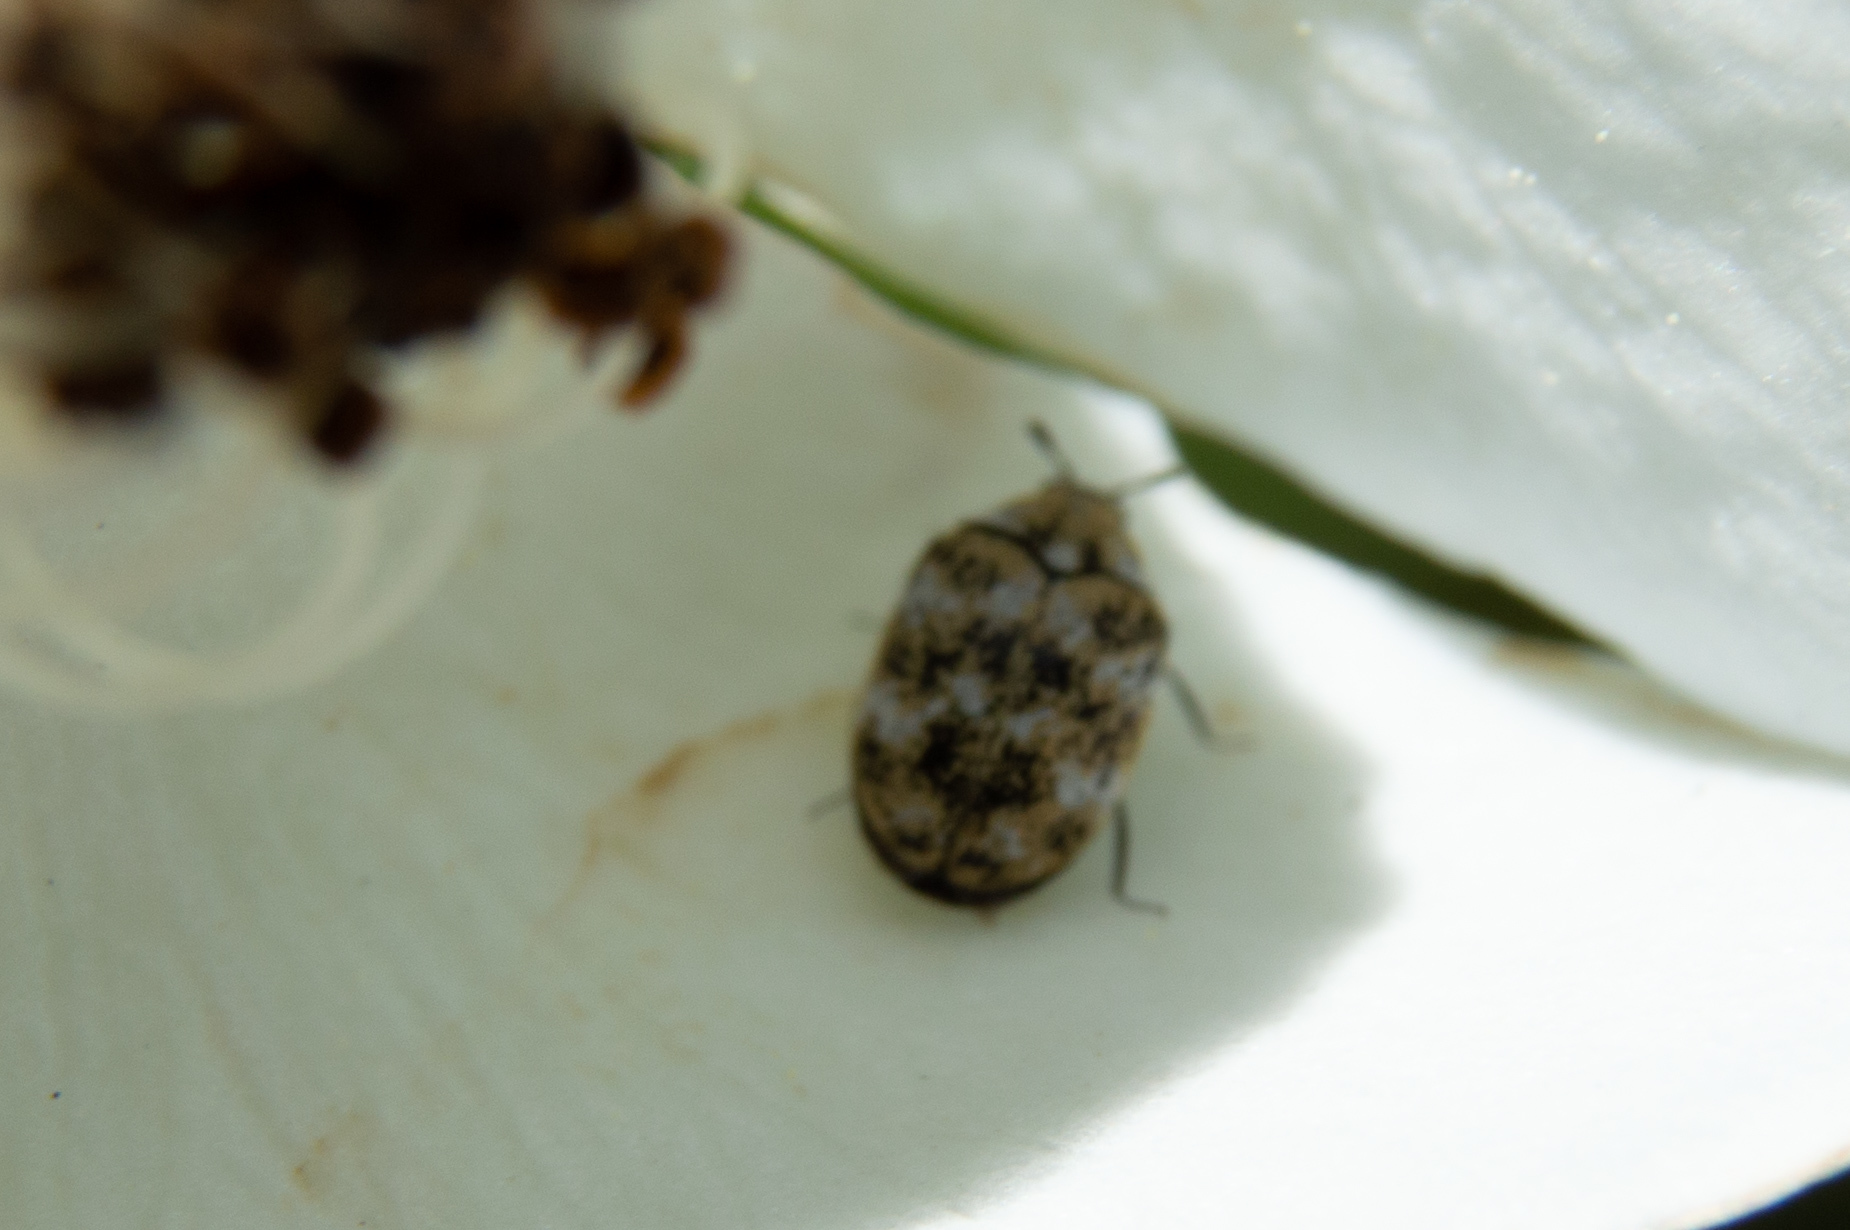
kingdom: Animalia
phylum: Arthropoda
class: Insecta
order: Coleoptera
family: Dermestidae
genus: Anthrenus
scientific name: Anthrenus verbasci
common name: Varied carpet beetle
